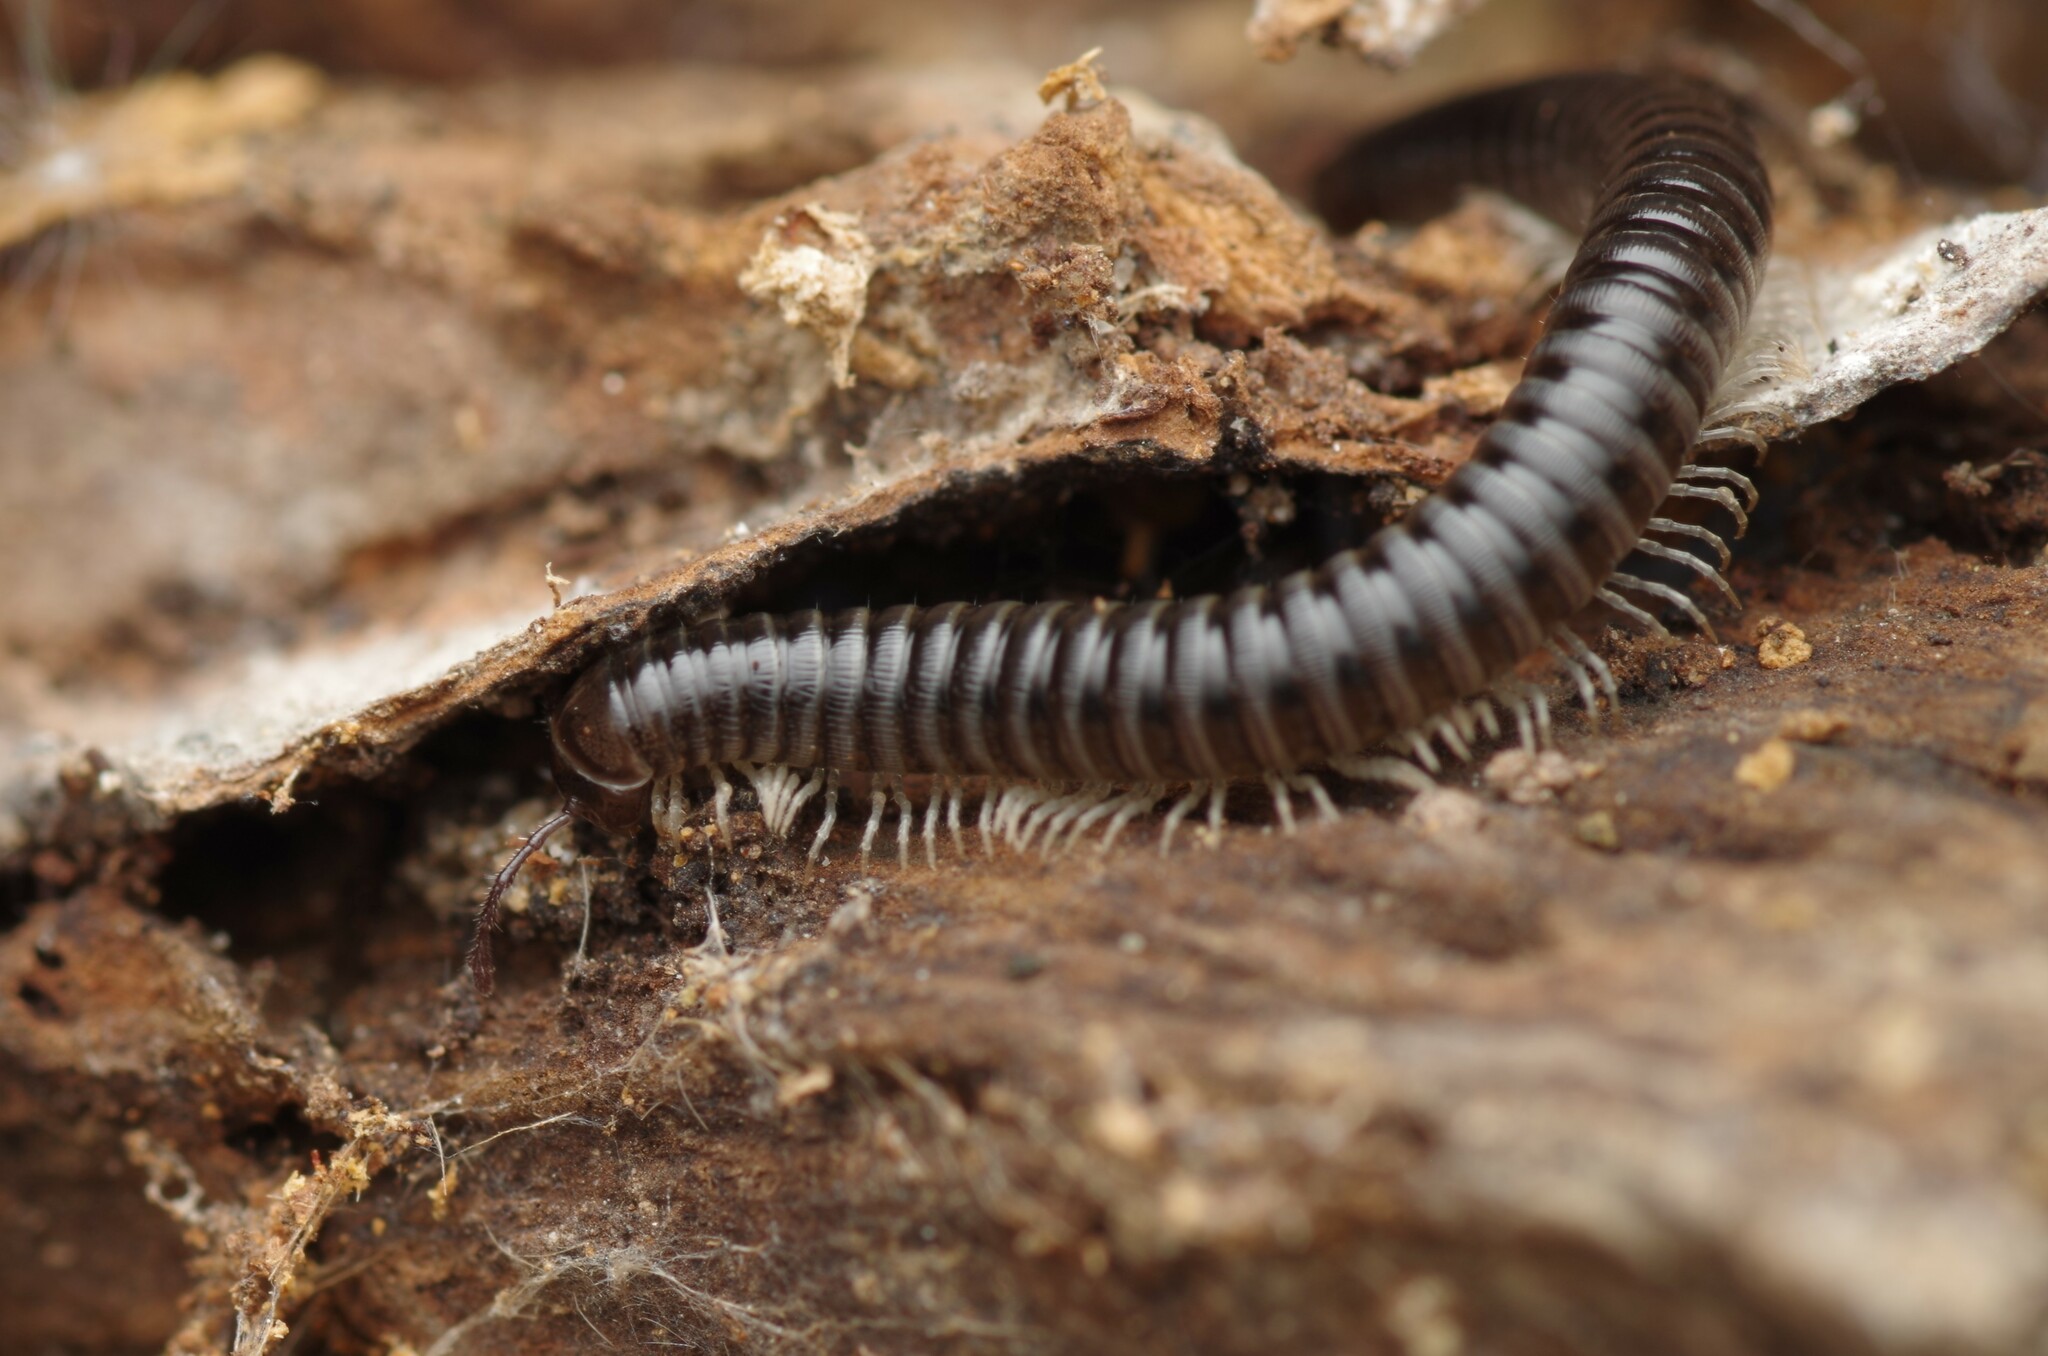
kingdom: Animalia
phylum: Arthropoda
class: Diplopoda
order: Julida
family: Julidae
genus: Tachypodoiulus
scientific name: Tachypodoiulus niger
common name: White-legged snake millipede
